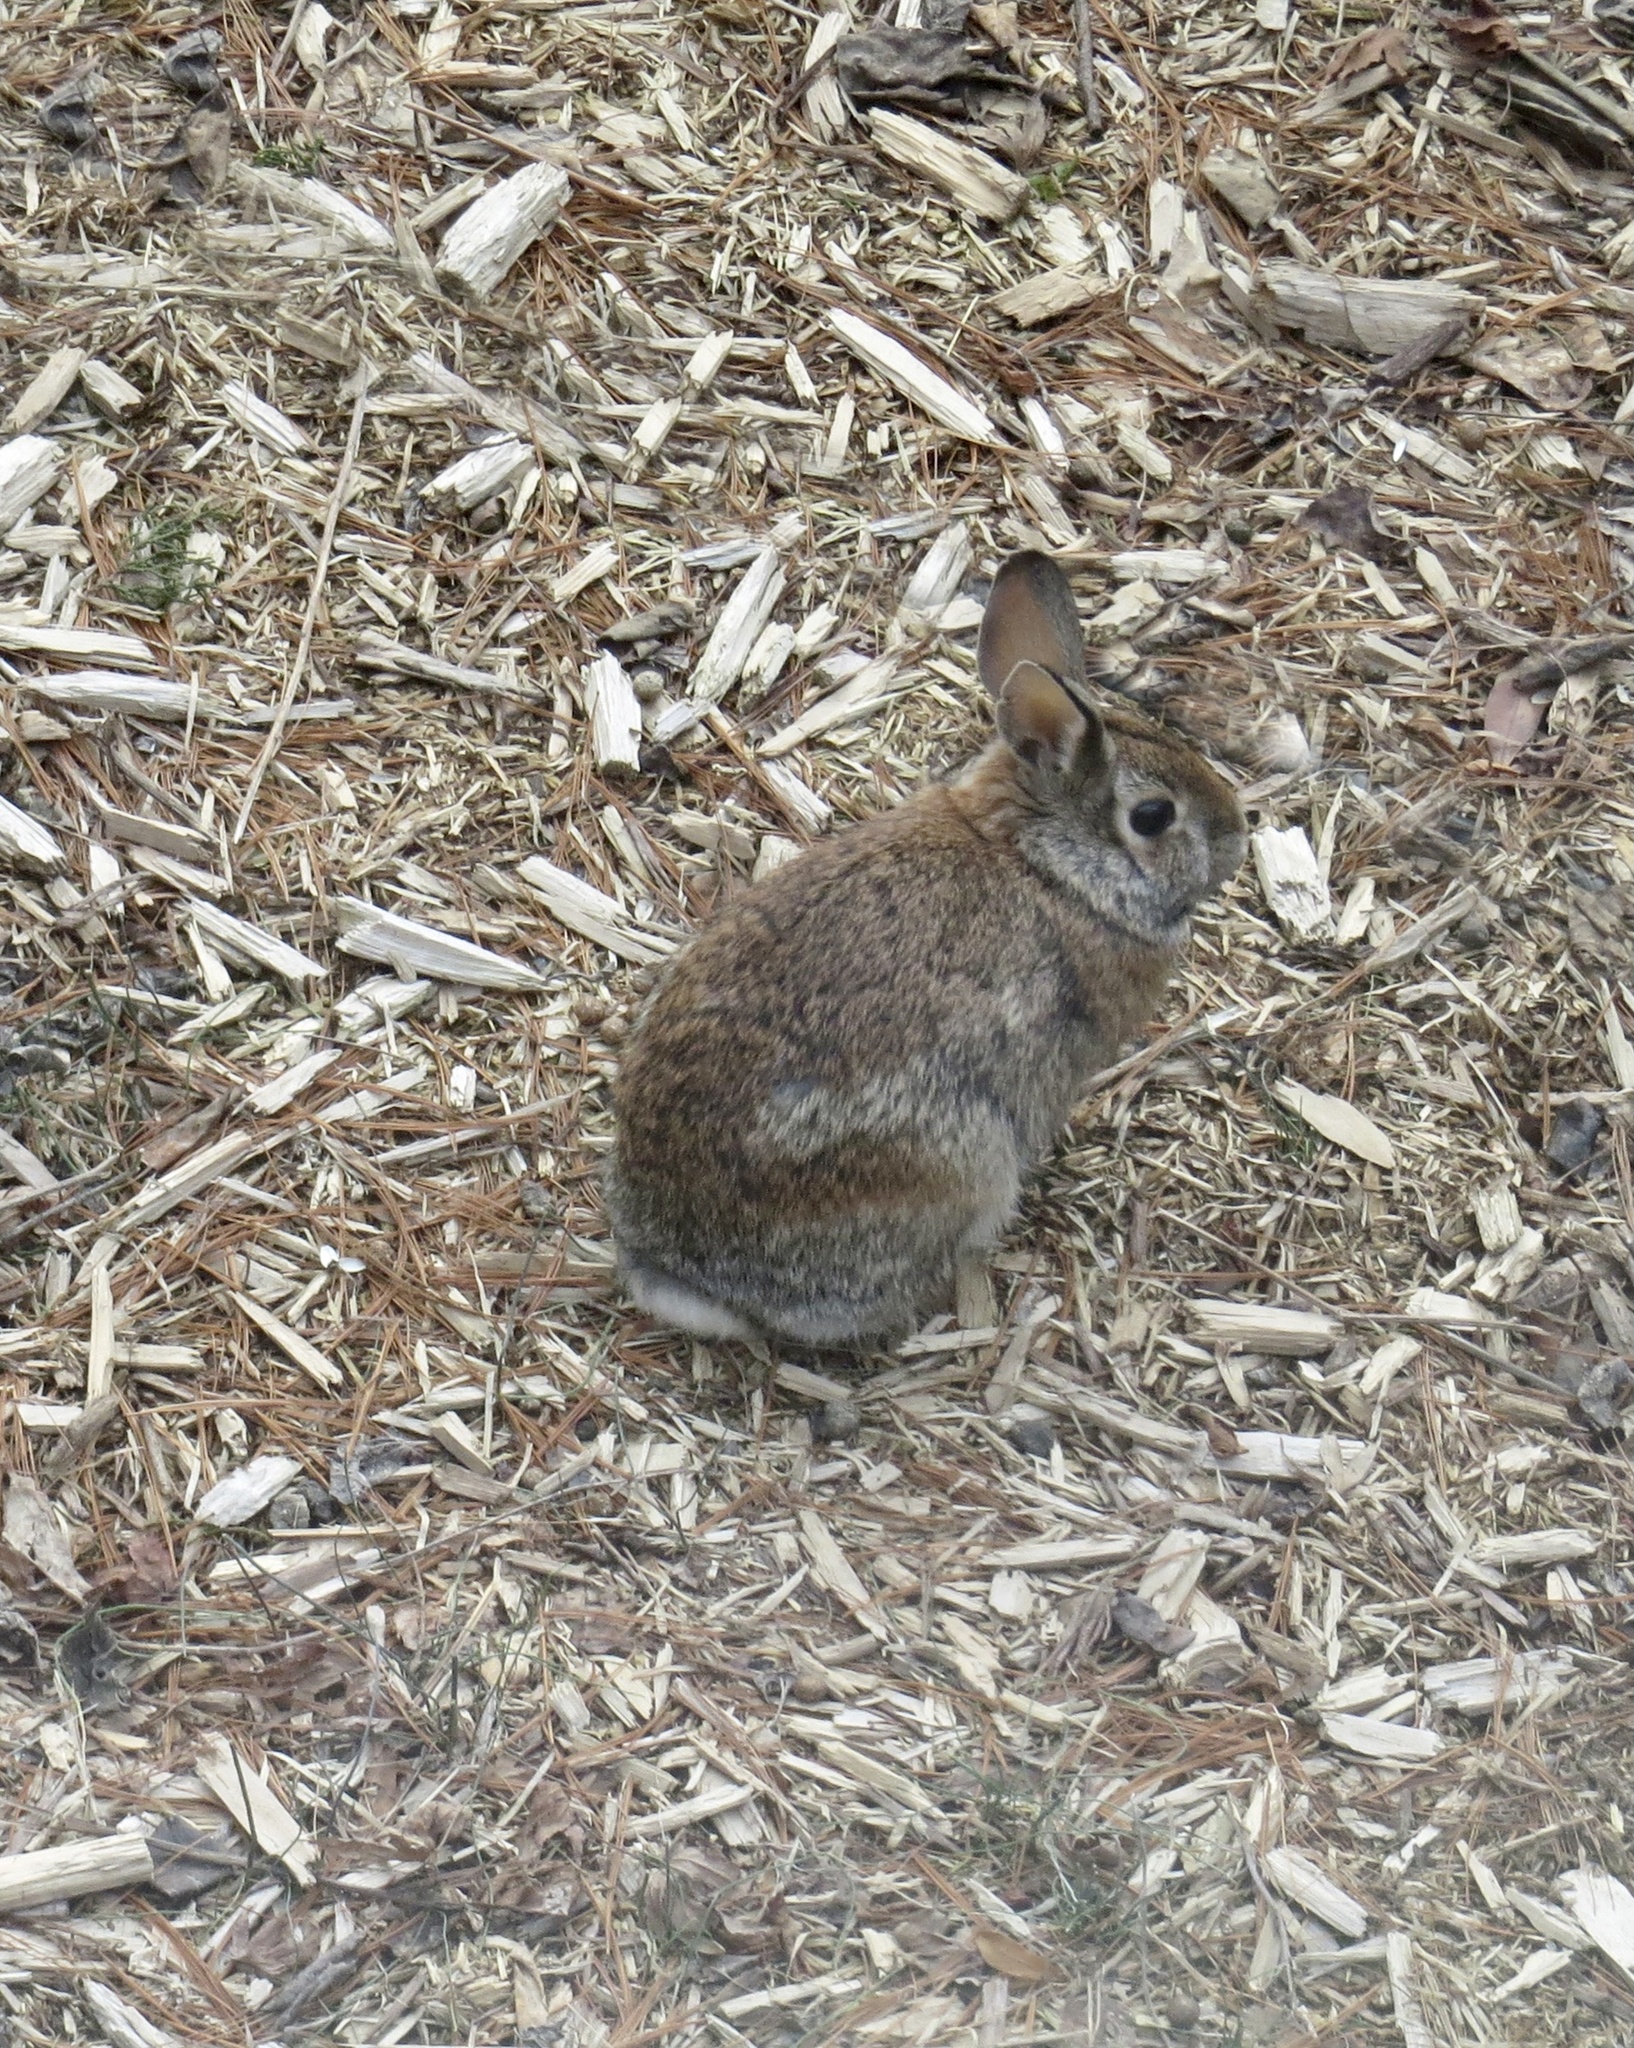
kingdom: Animalia
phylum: Chordata
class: Mammalia
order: Lagomorpha
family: Leporidae
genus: Sylvilagus
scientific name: Sylvilagus floridanus
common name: Eastern cottontail
